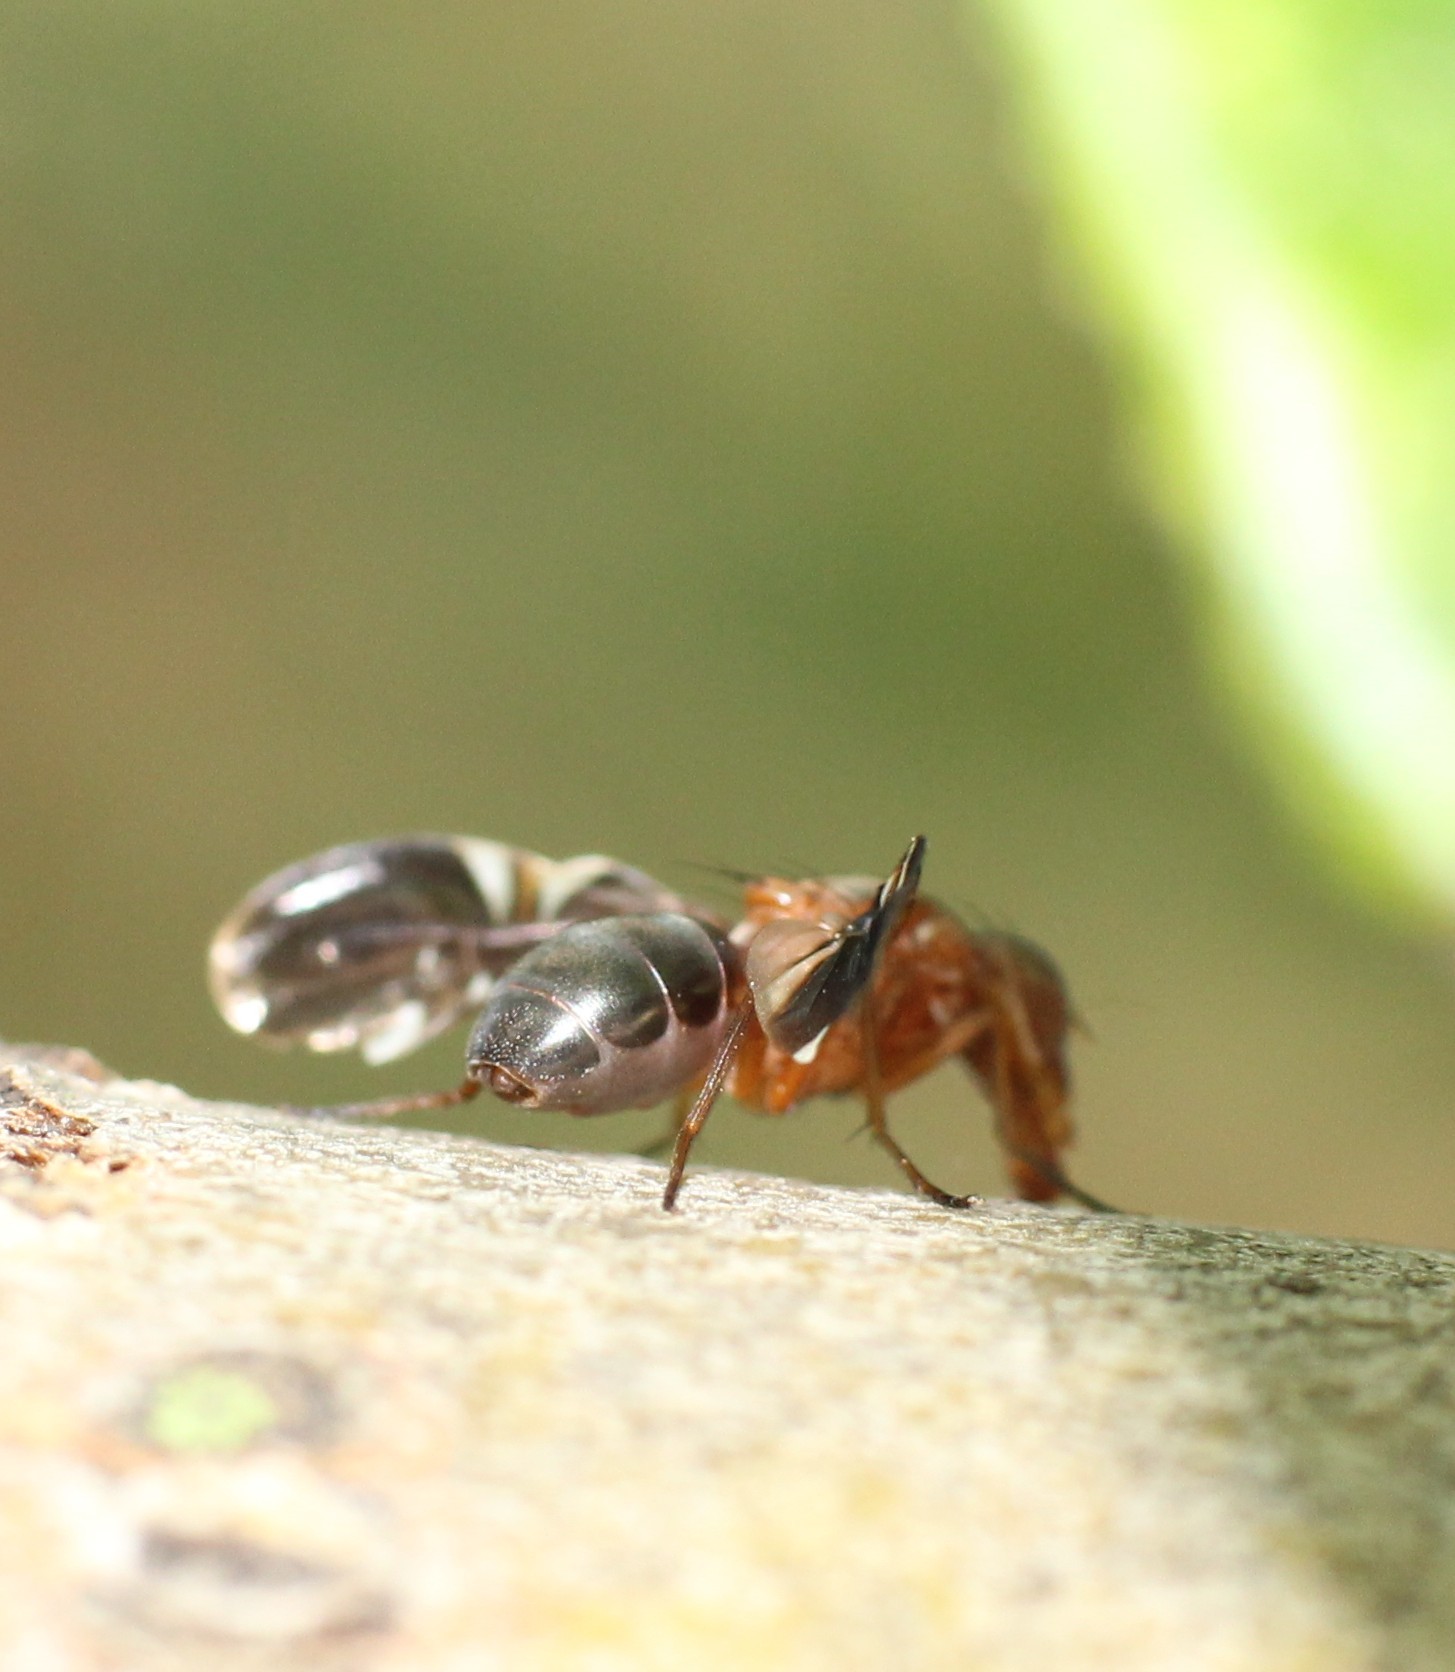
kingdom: Animalia
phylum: Arthropoda
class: Insecta
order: Diptera
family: Ulidiidae
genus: Delphinia
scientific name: Delphinia picta
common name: Common picture-winged fly
